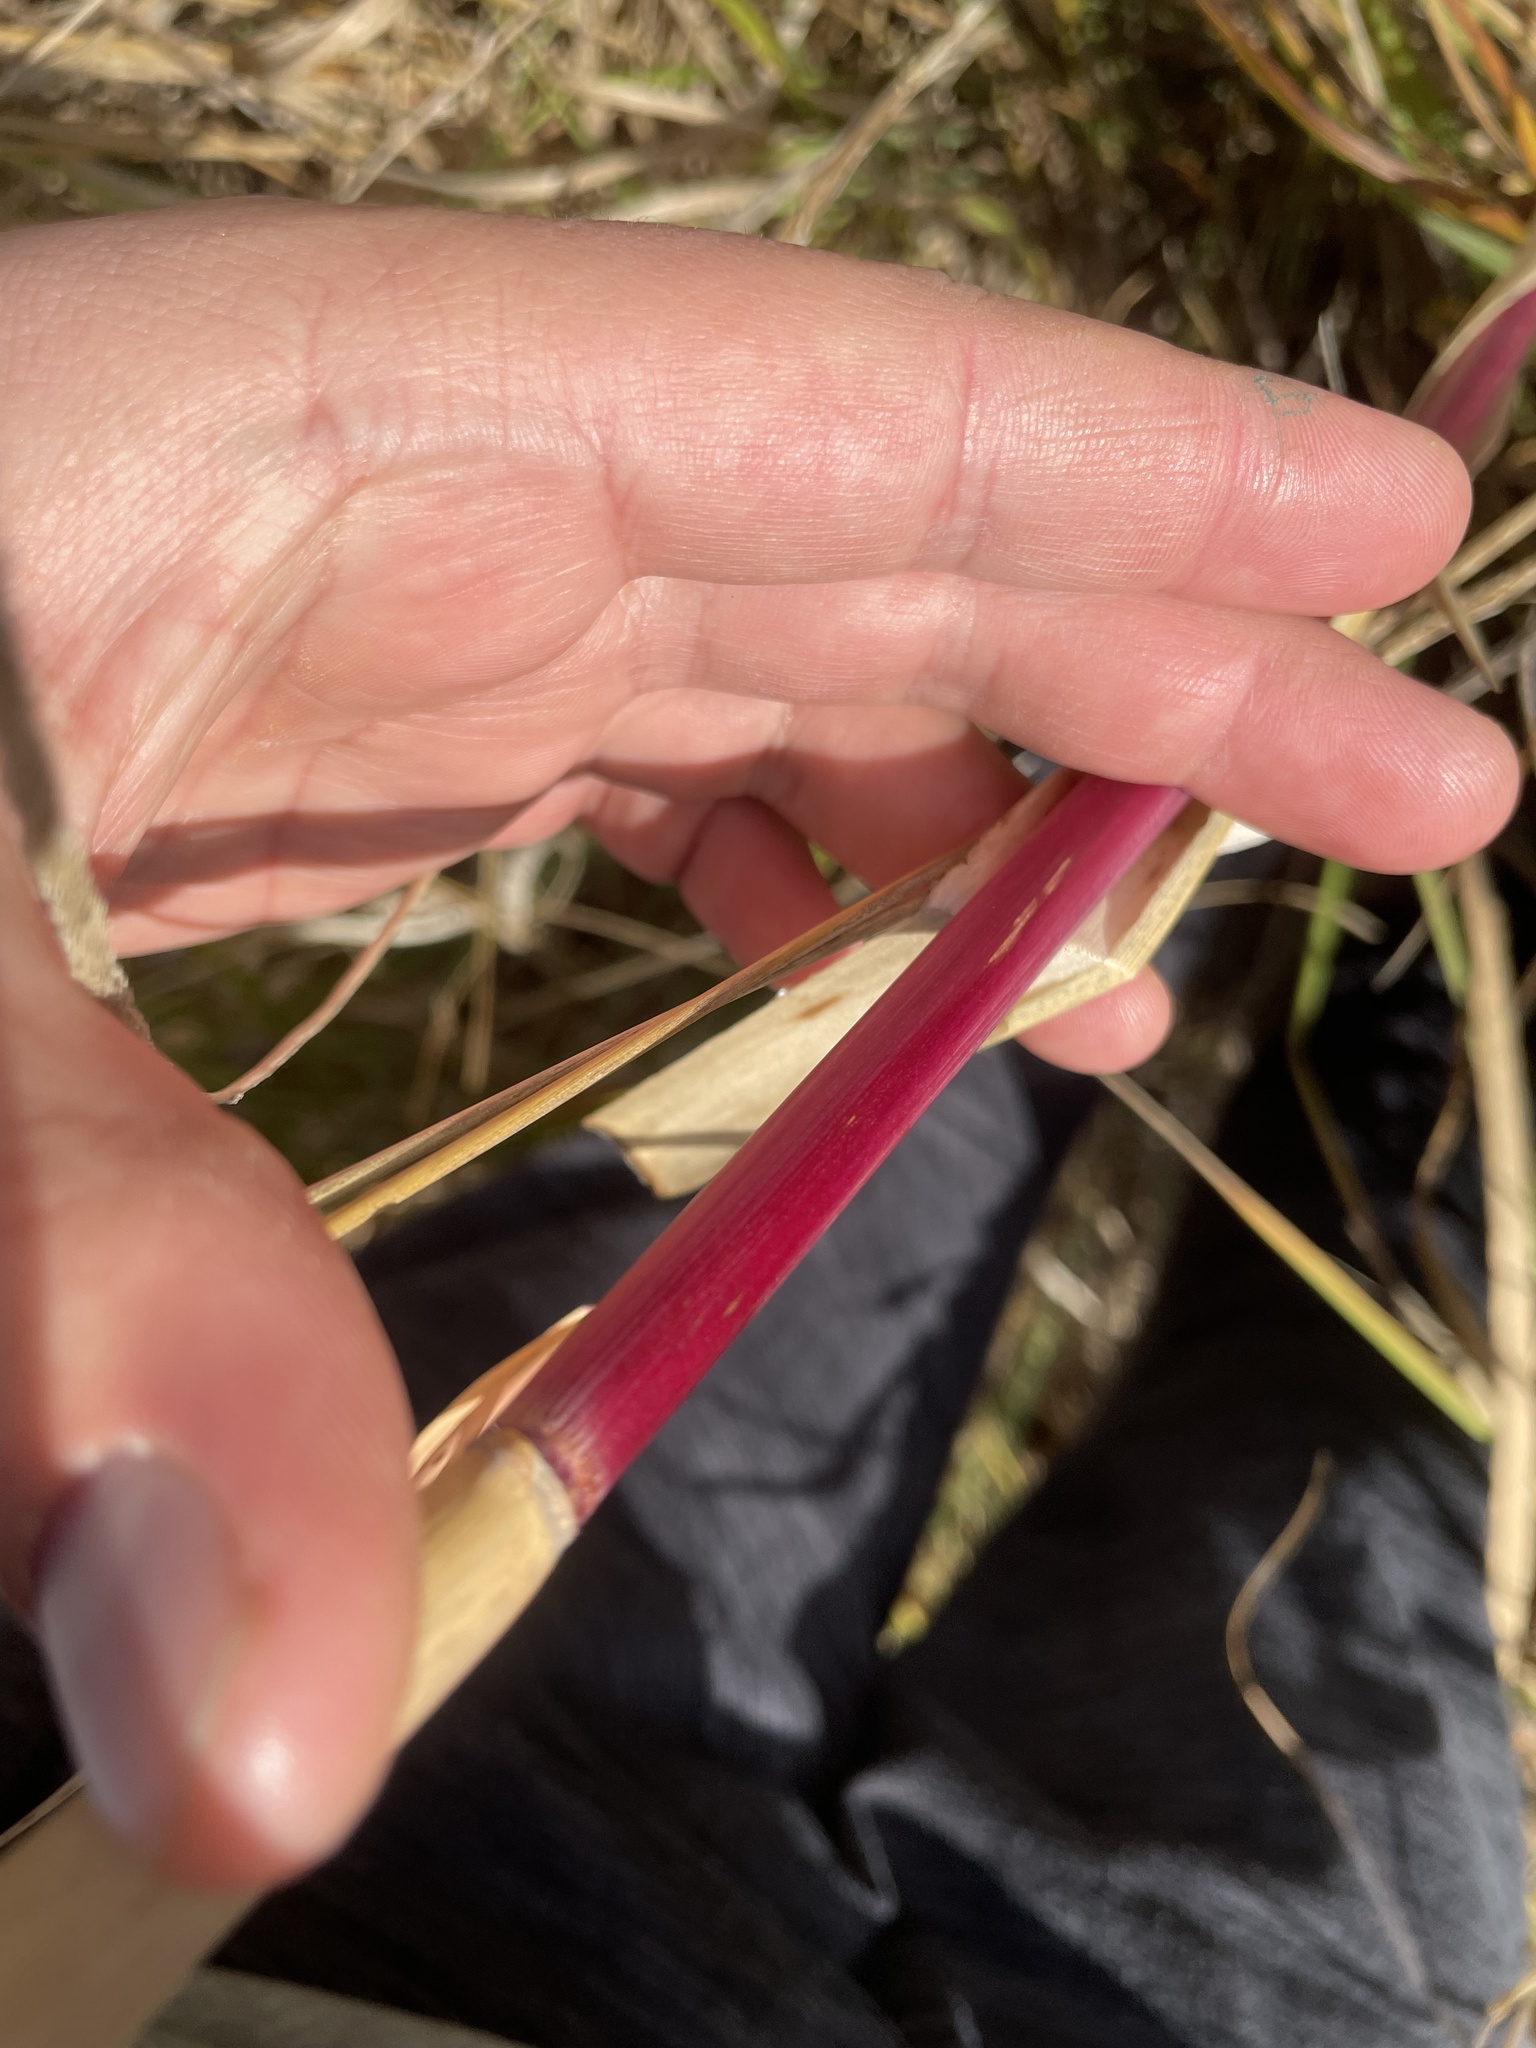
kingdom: Plantae
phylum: Tracheophyta
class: Liliopsida
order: Poales
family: Poaceae
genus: Phragmites
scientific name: Phragmites australis
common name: Common reed
